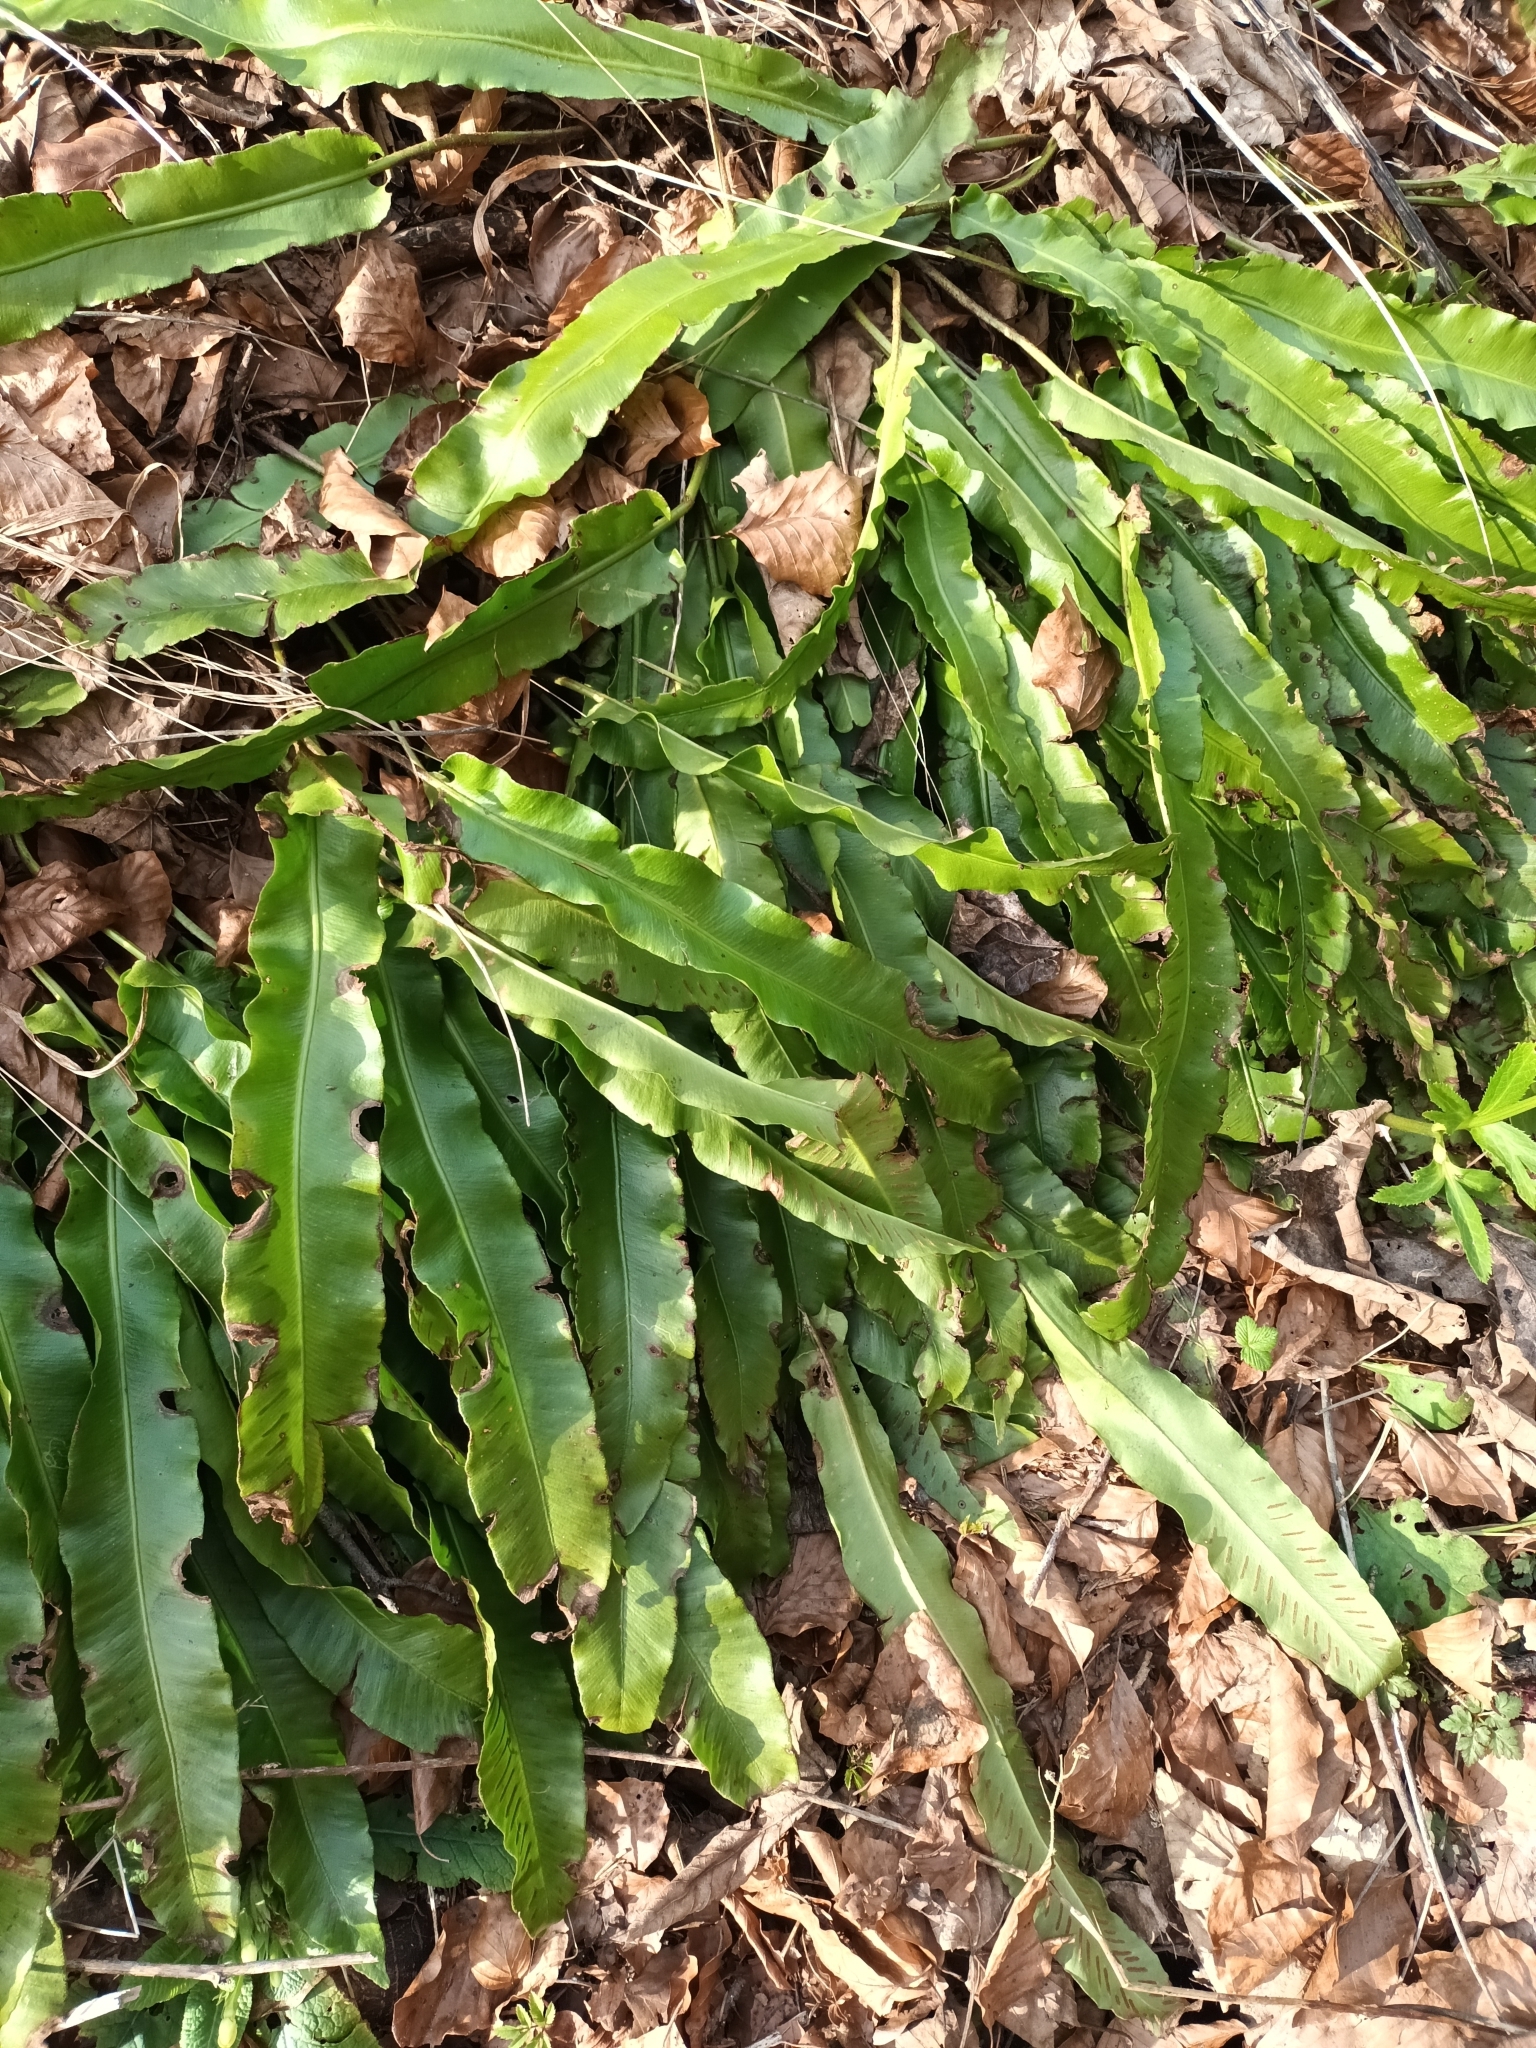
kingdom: Plantae
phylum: Tracheophyta
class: Polypodiopsida
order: Polypodiales
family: Aspleniaceae
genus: Asplenium
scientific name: Asplenium scolopendrium
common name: Hart's-tongue fern
